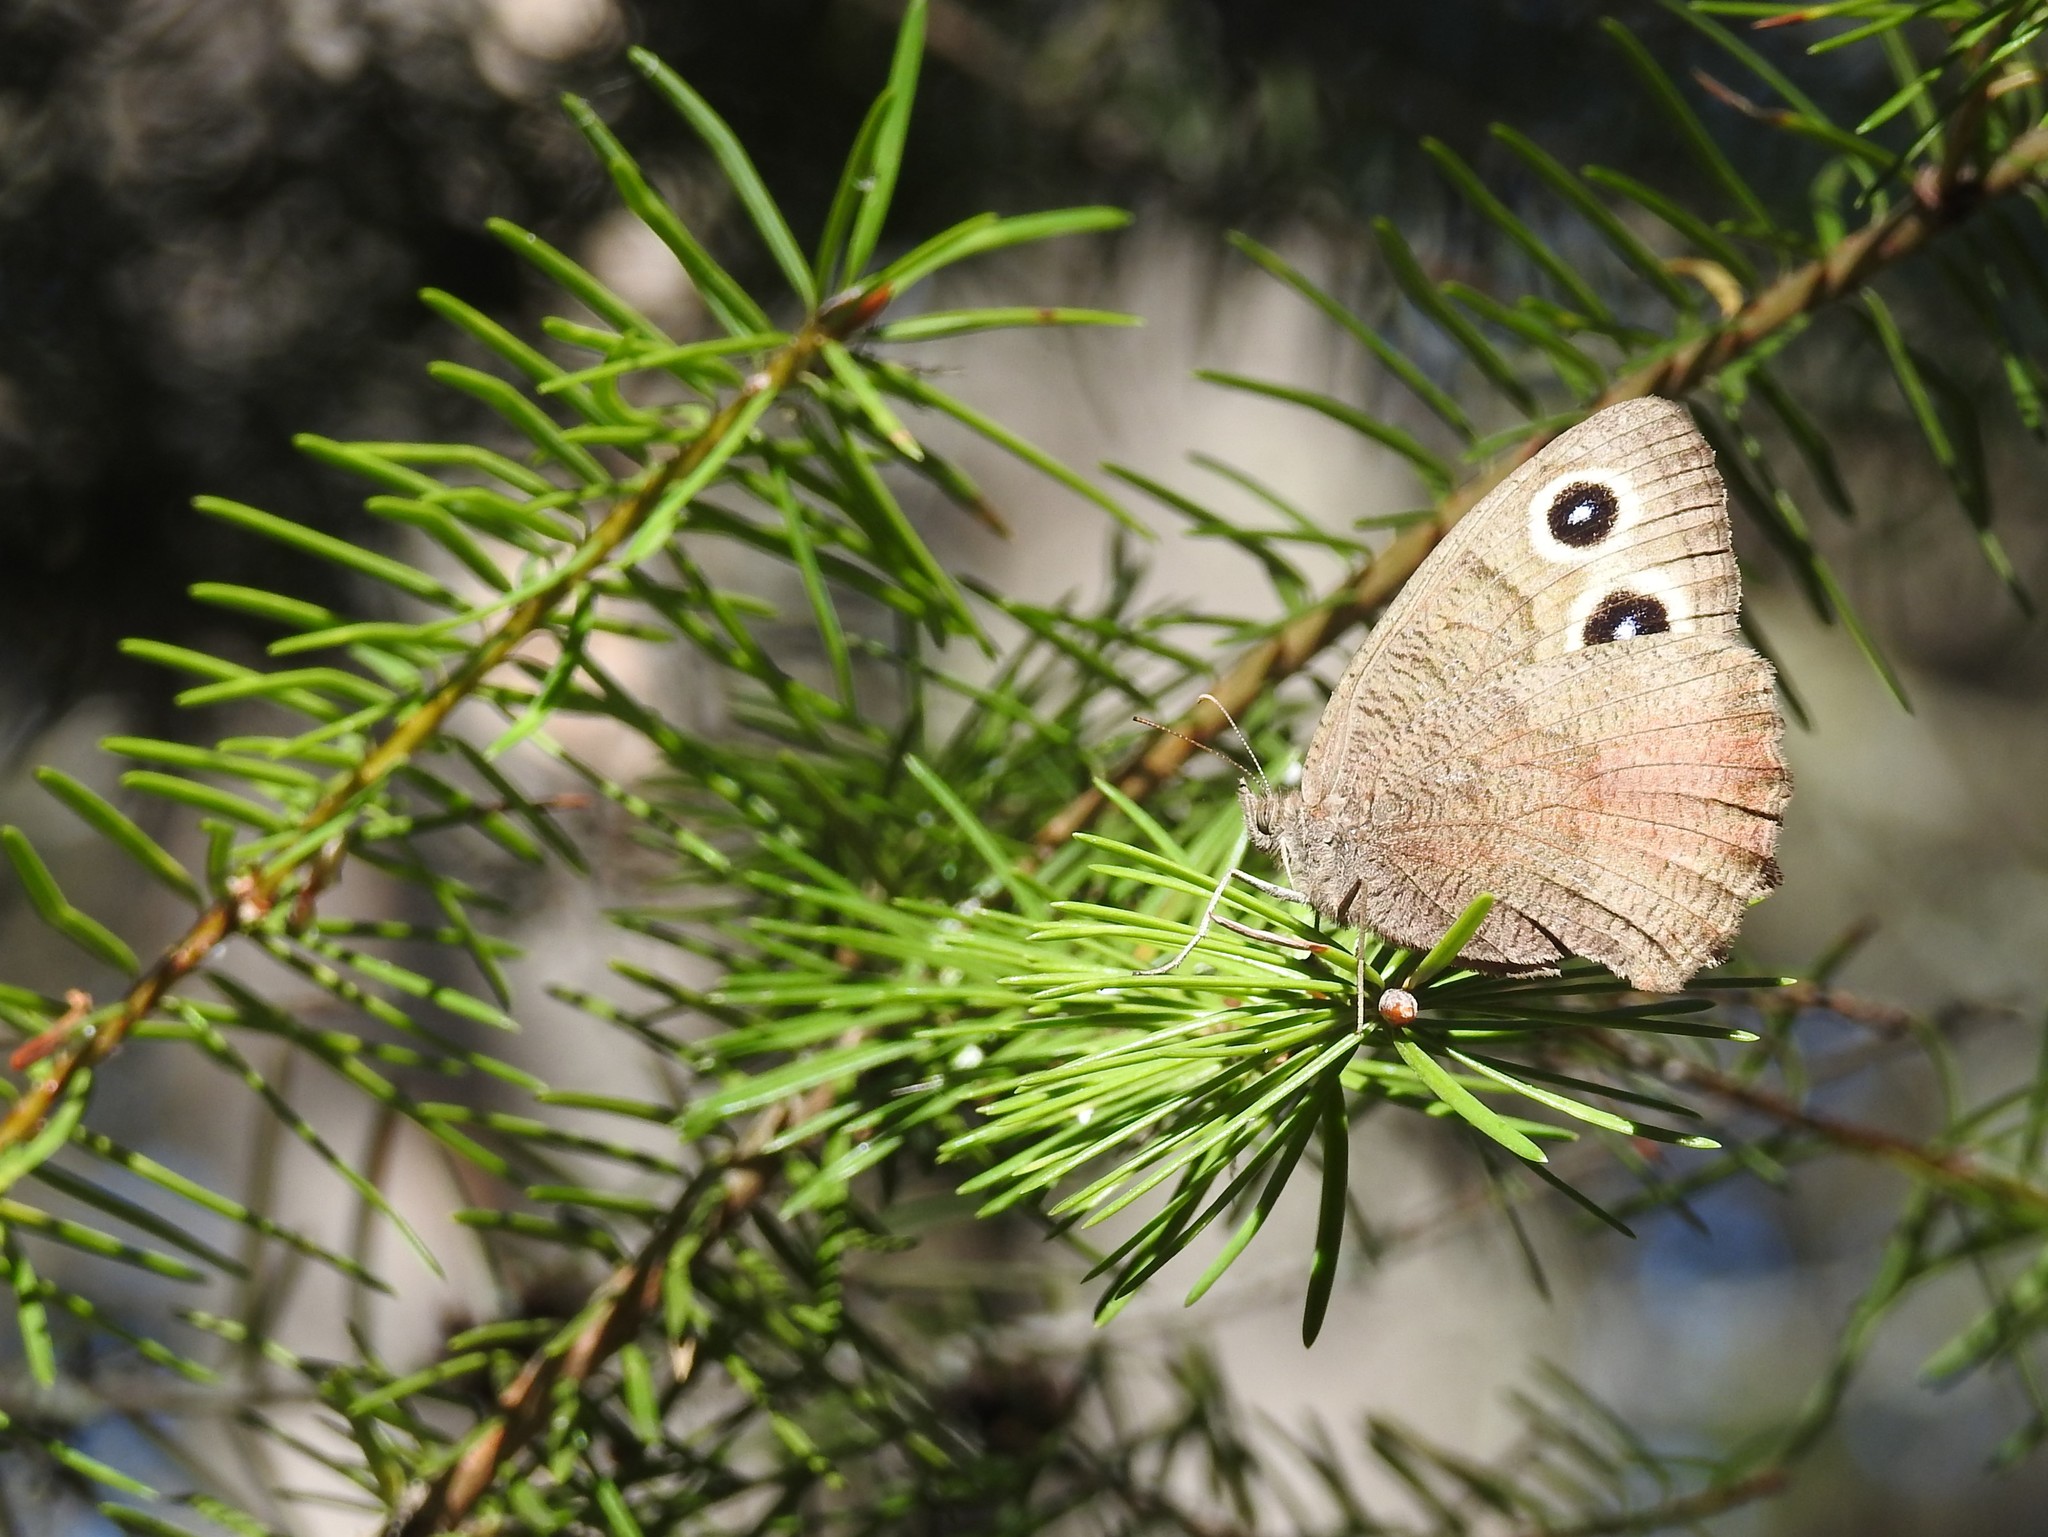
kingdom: Animalia
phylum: Arthropoda
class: Insecta
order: Lepidoptera
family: Nymphalidae
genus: Cercyonis
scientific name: Cercyonis pegala
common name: Common wood-nymph
